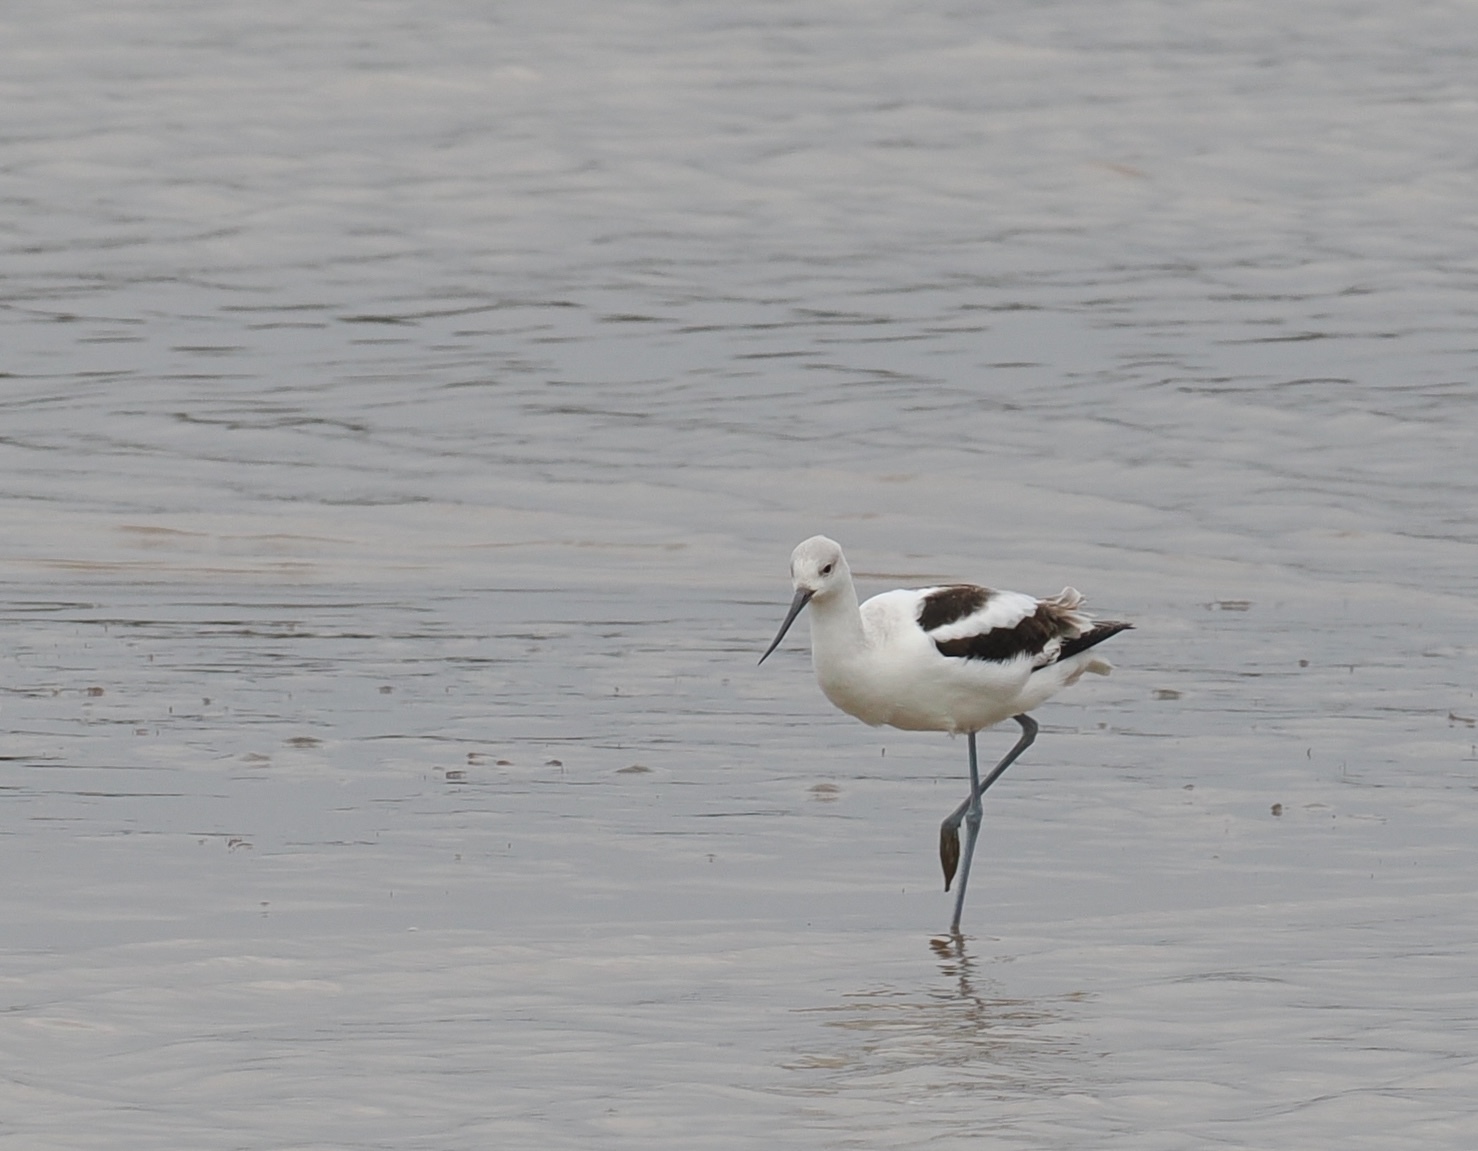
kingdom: Animalia
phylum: Chordata
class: Aves
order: Charadriiformes
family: Recurvirostridae
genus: Recurvirostra
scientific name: Recurvirostra americana
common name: American avocet
